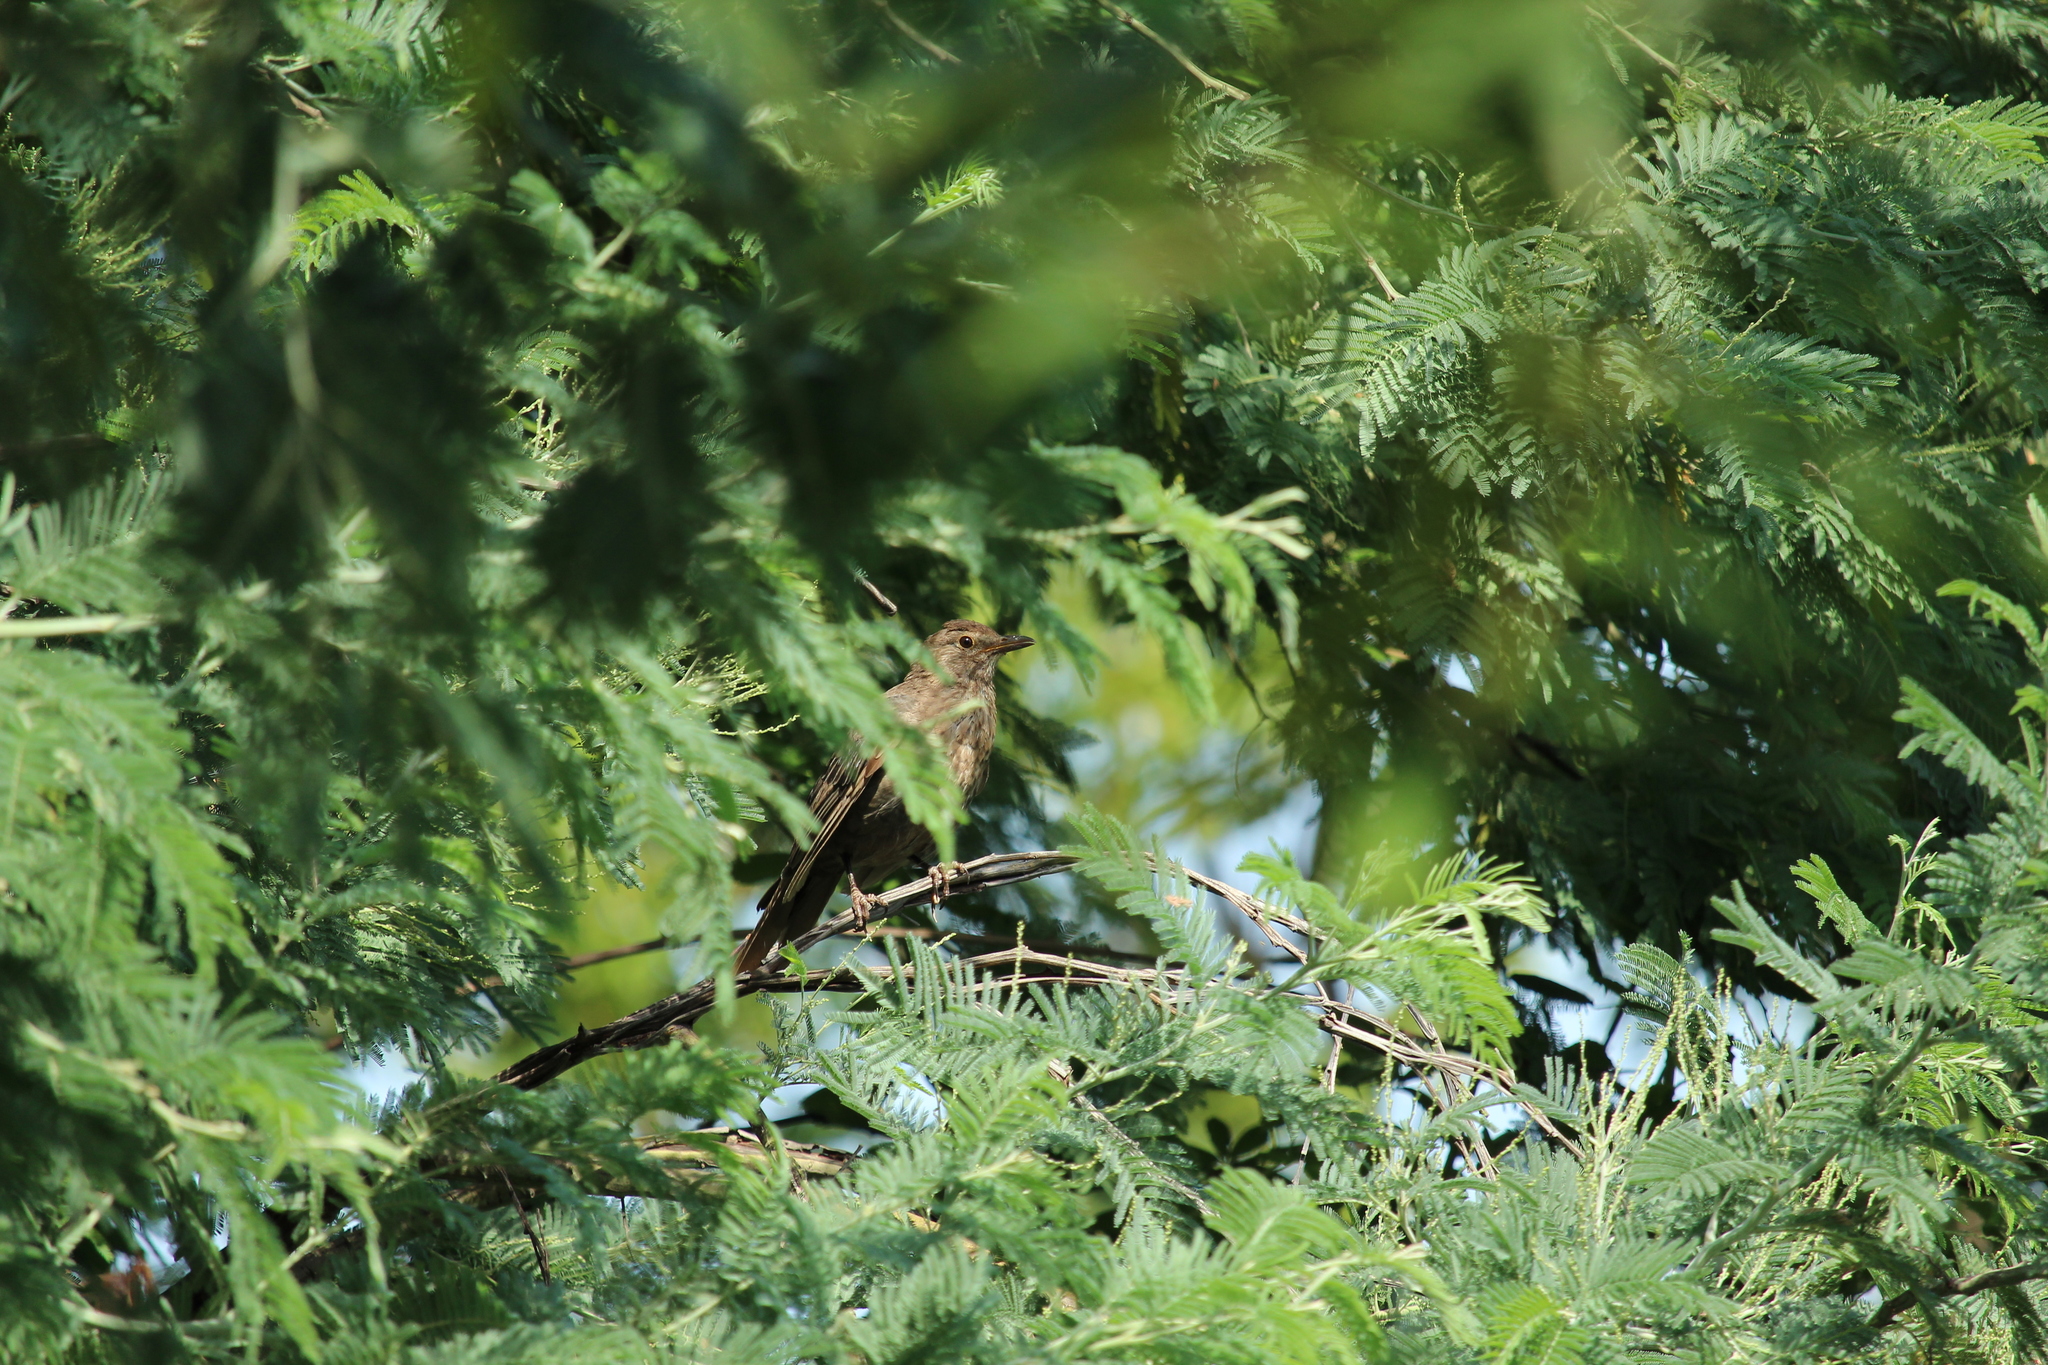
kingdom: Animalia
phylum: Chordata
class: Aves
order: Passeriformes
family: Turdidae
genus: Turdus
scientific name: Turdus merula
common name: Common blackbird
